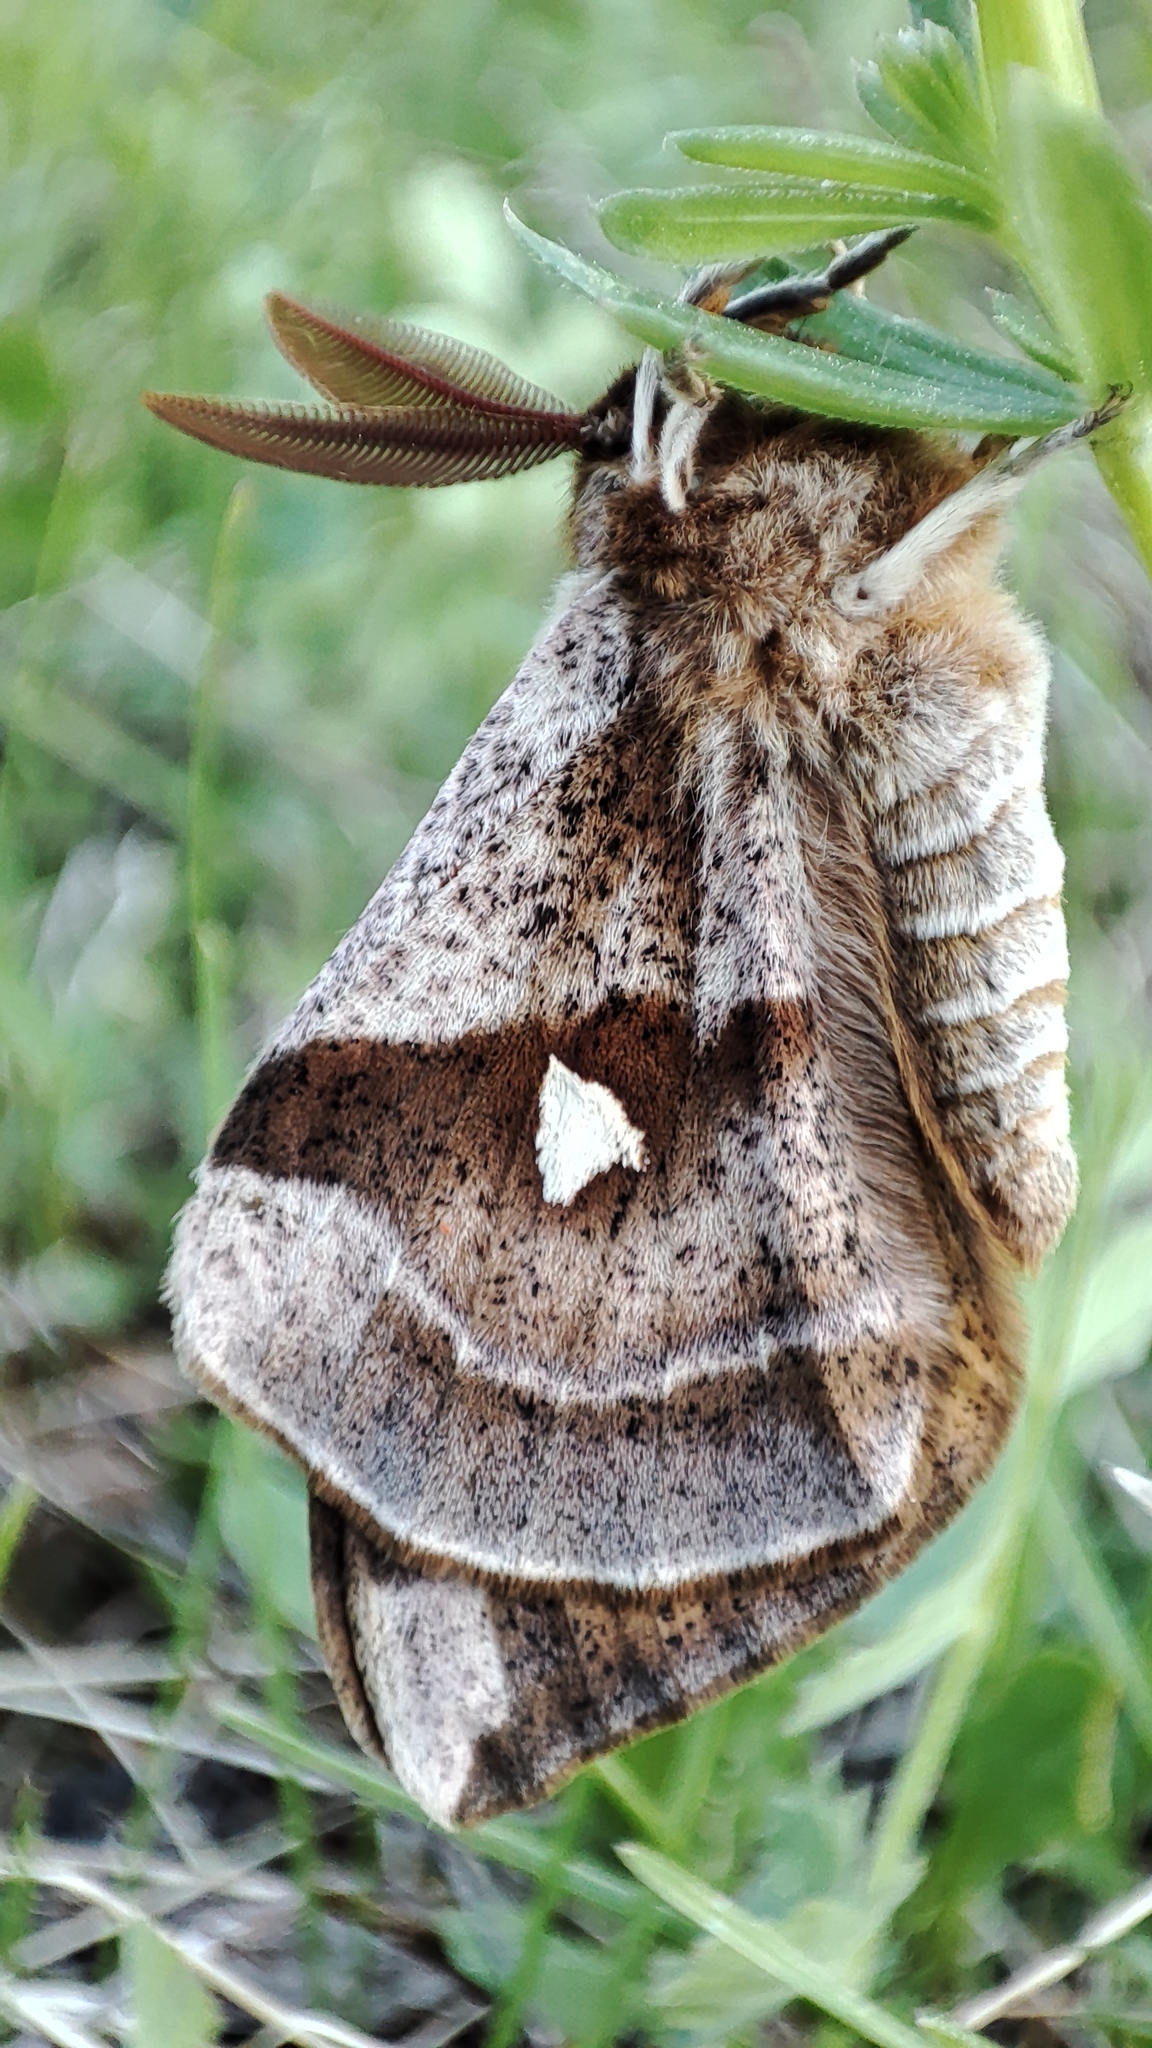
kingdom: Animalia
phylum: Arthropoda
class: Insecta
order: Lepidoptera
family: Saturniidae
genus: Aglia
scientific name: Aglia tau
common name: Tau emperor
